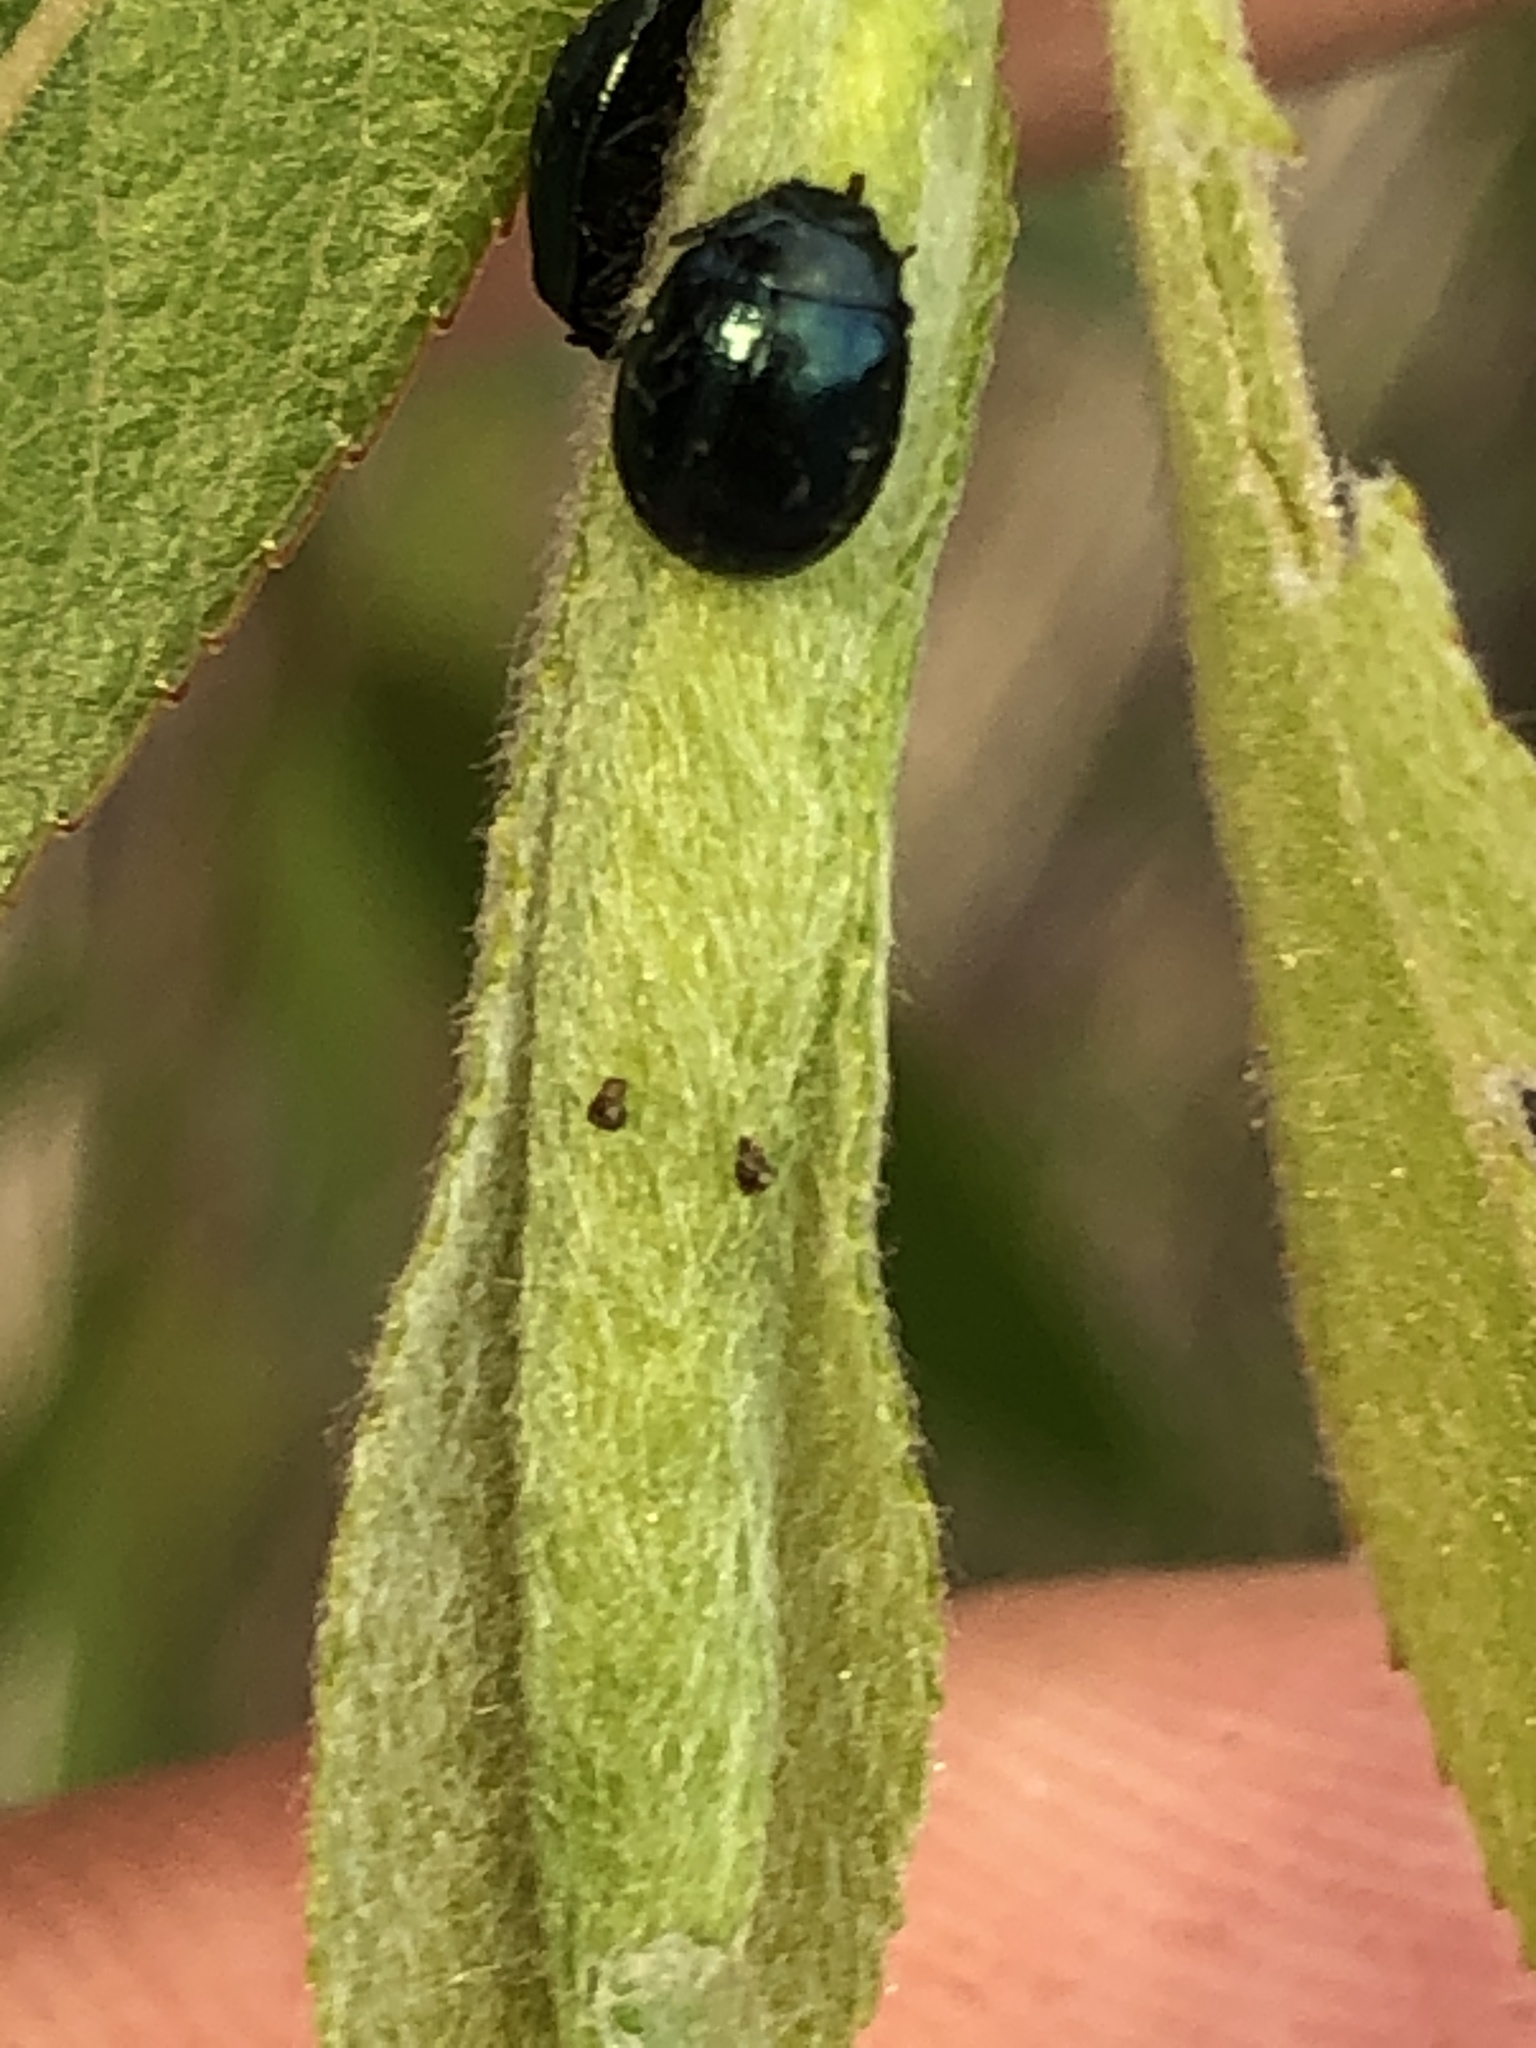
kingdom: Animalia
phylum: Arthropoda
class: Insecta
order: Coleoptera
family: Chrysomelidae
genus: Plagiodera
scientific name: Plagiodera versicolora
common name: Imported willow leaf beetle
